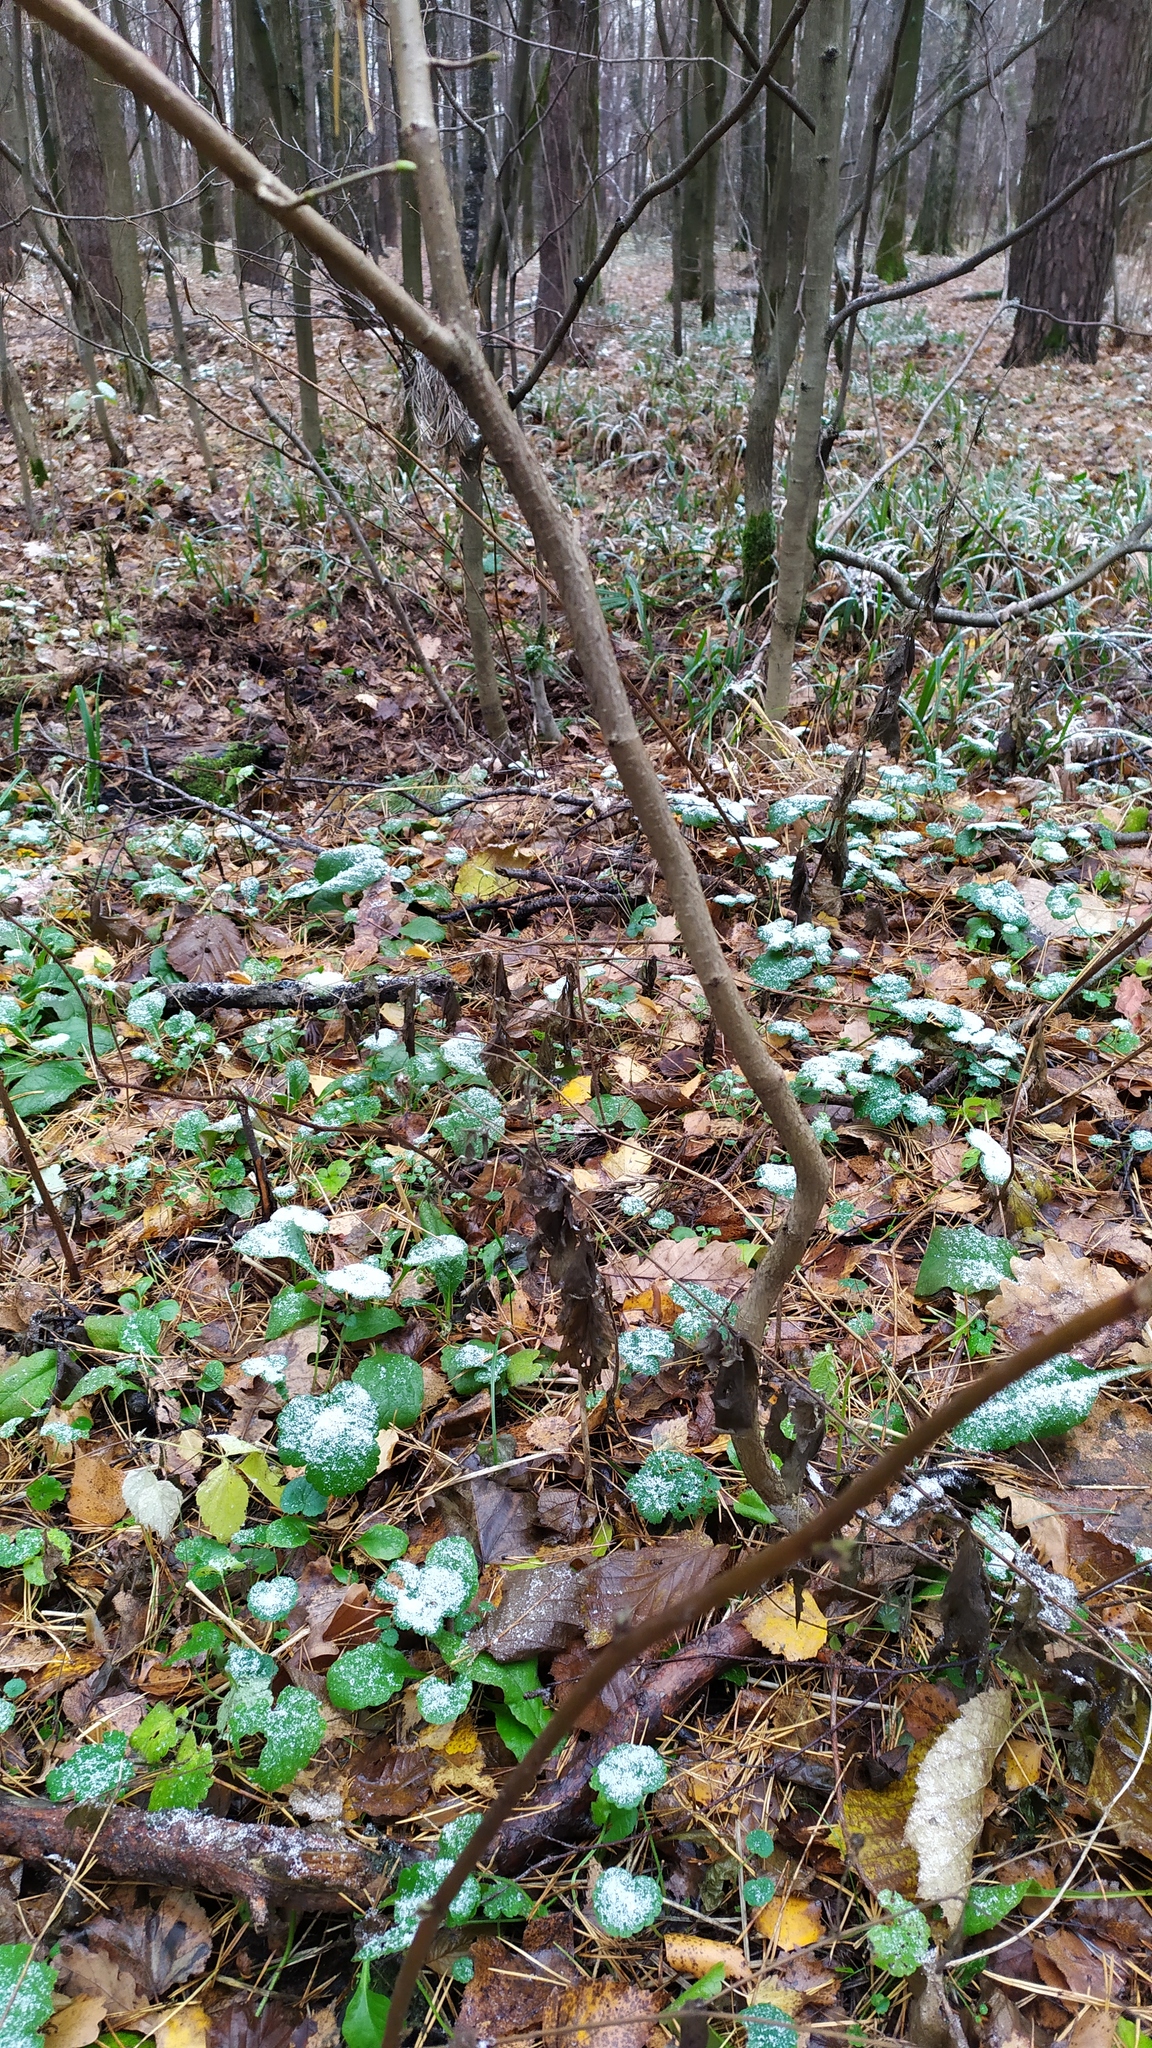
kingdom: Plantae
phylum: Tracheophyta
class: Magnoliopsida
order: Fagales
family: Betulaceae
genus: Corylus
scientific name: Corylus avellana
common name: European hazel
